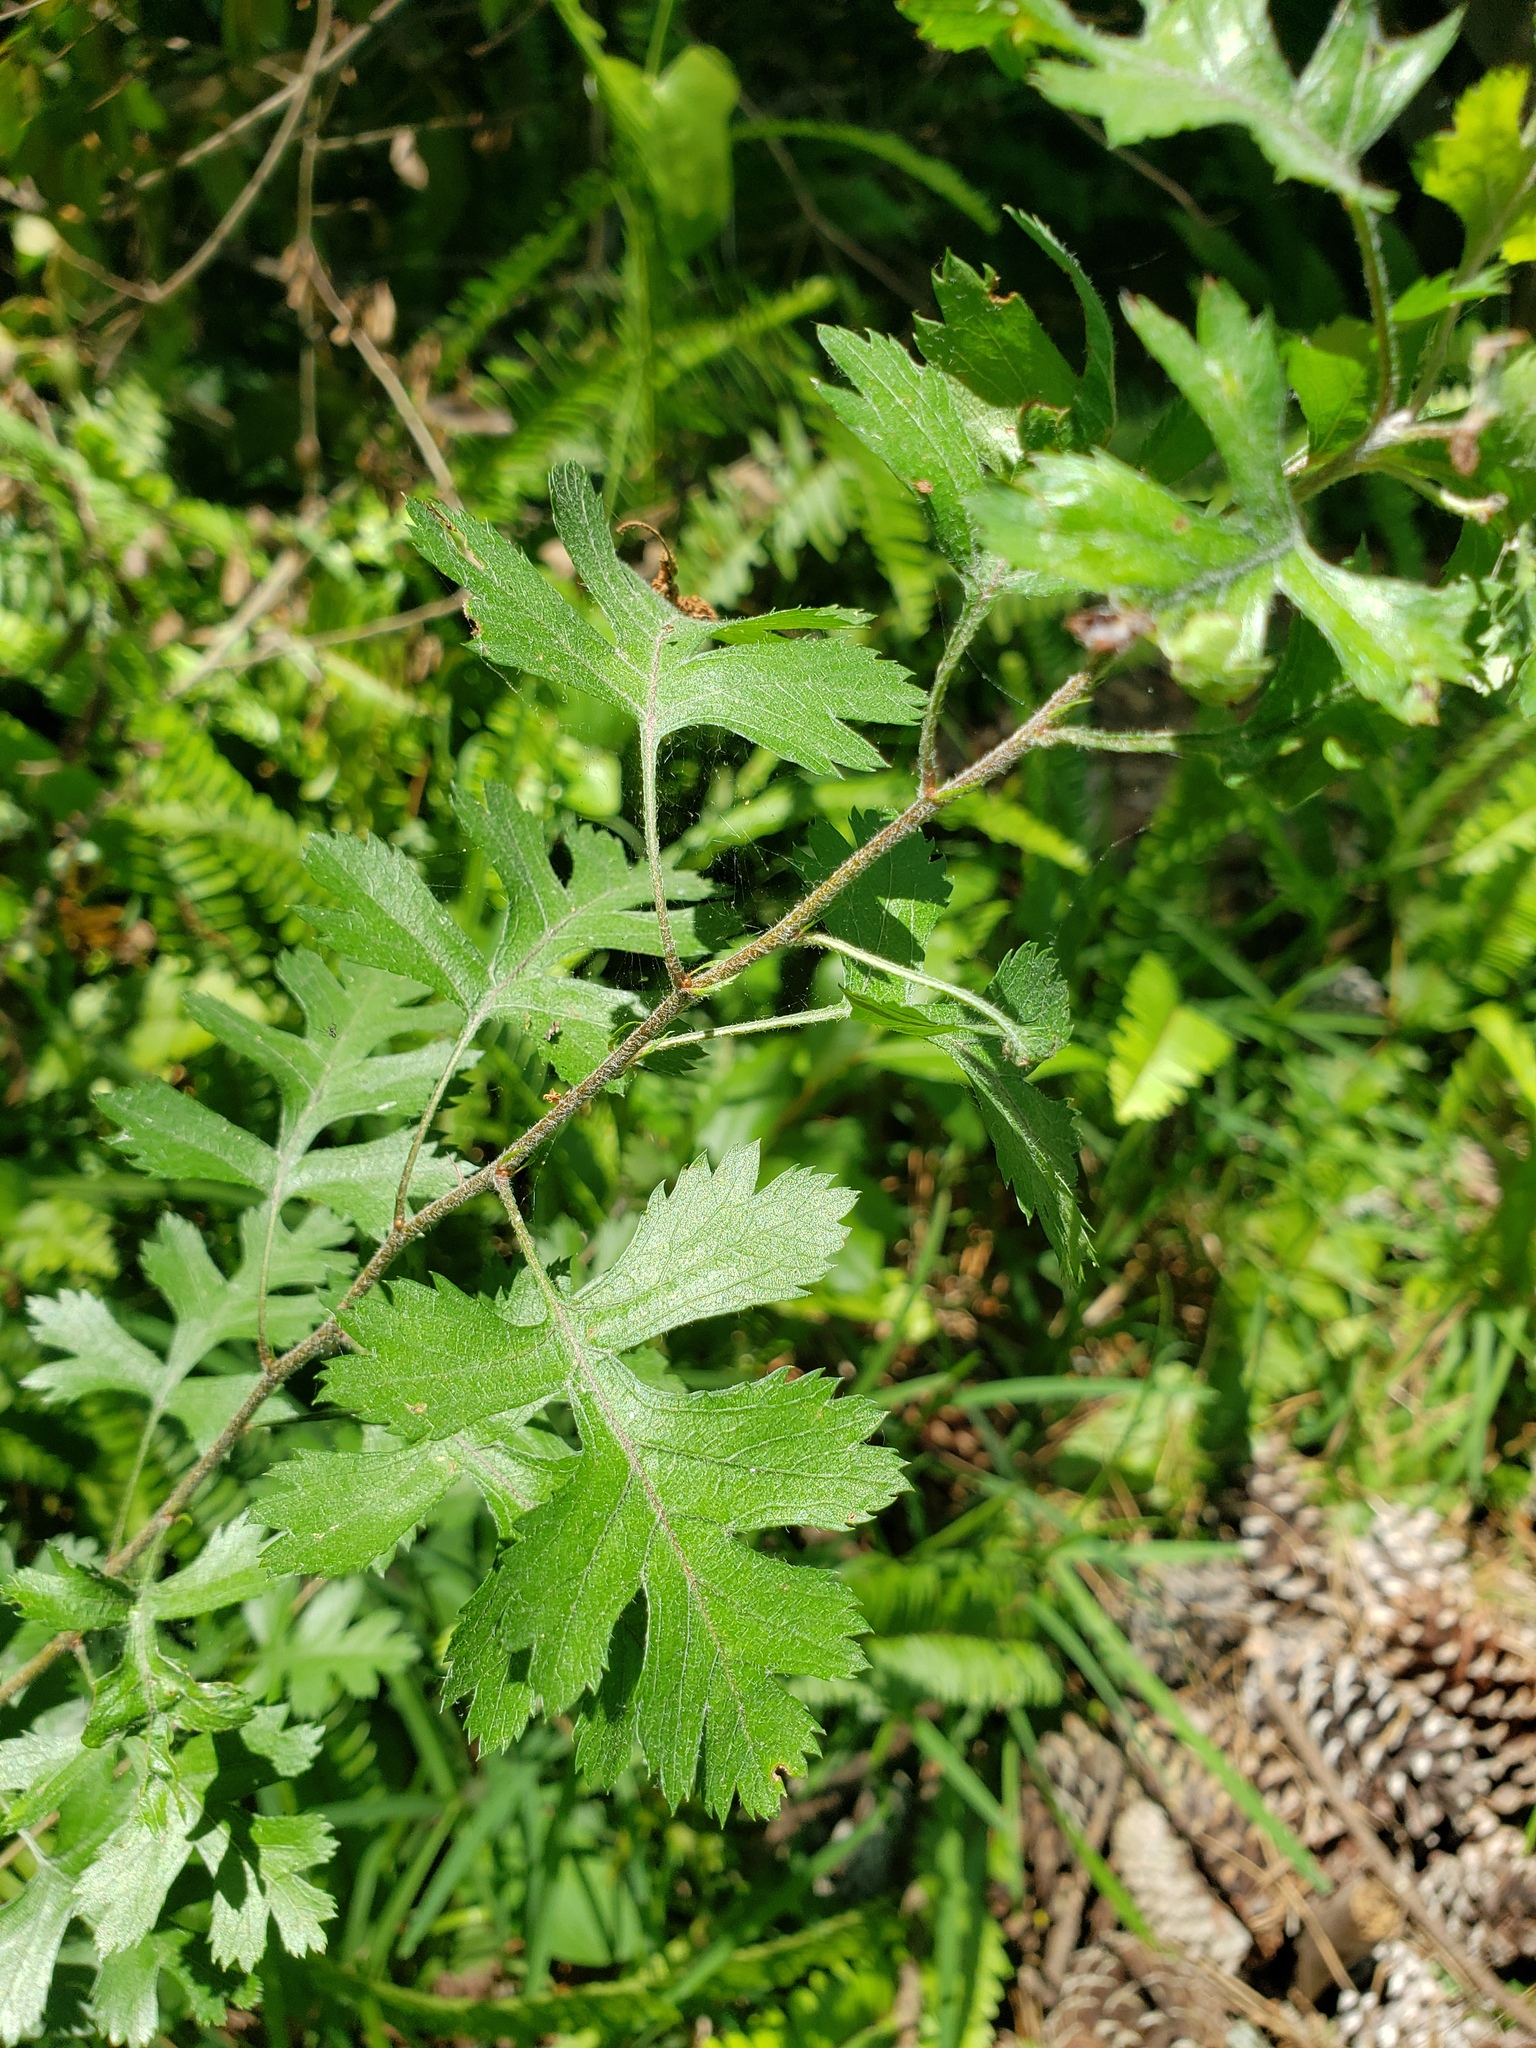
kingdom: Plantae
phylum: Tracheophyta
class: Magnoliopsida
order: Rosales
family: Rosaceae
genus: Crataegus
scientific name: Crataegus marshallii
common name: Parsley-hawthorn
